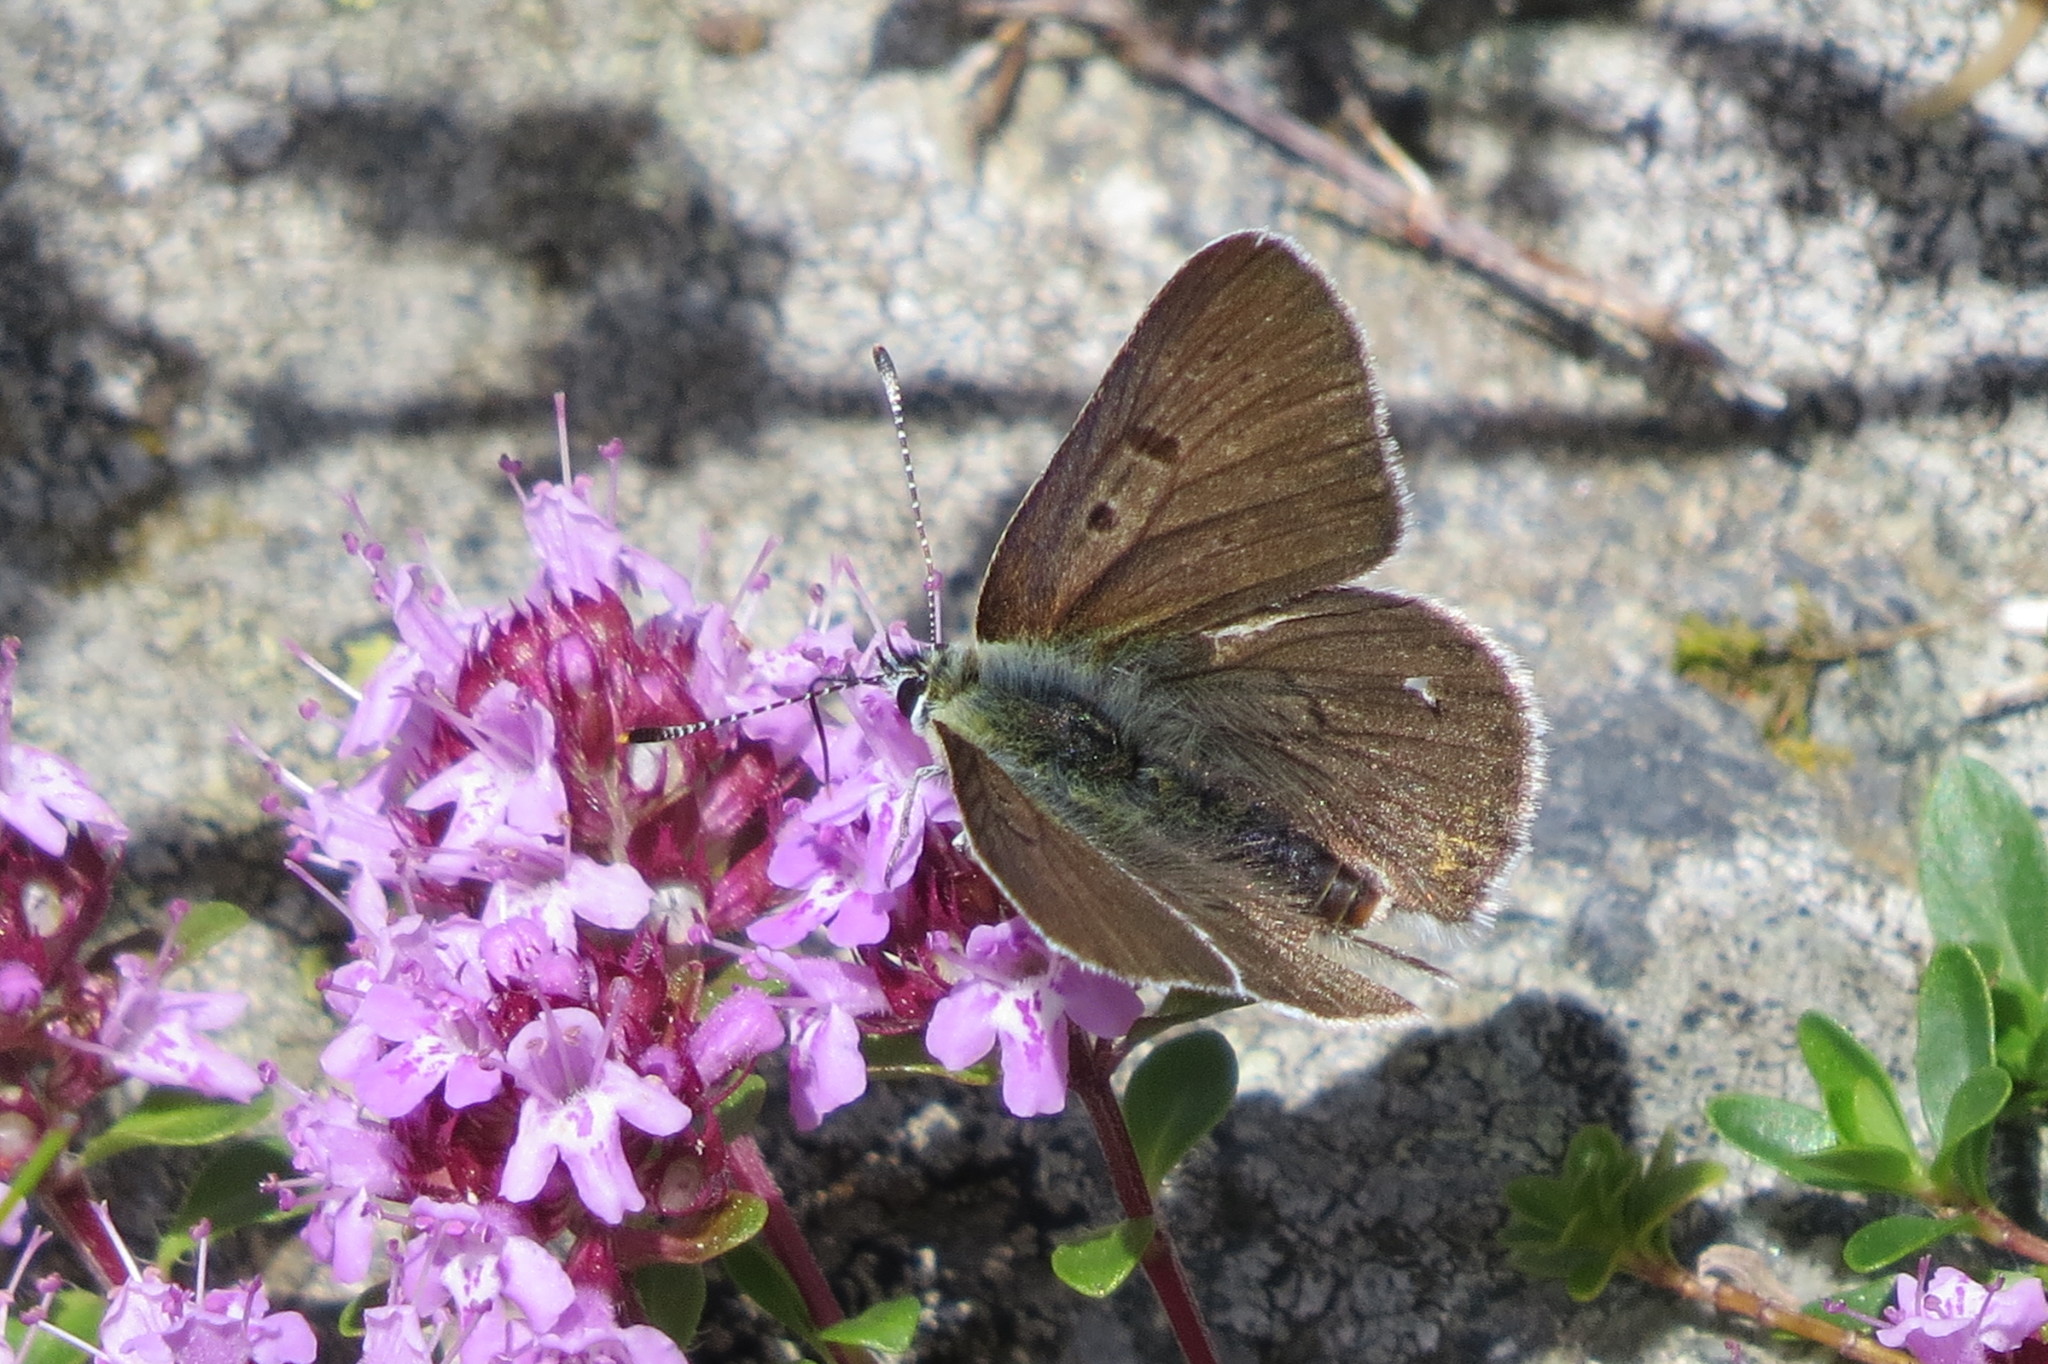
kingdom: Animalia
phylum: Arthropoda
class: Insecta
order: Lepidoptera
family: Lycaenidae
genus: Loweia
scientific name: Loweia tityrus
